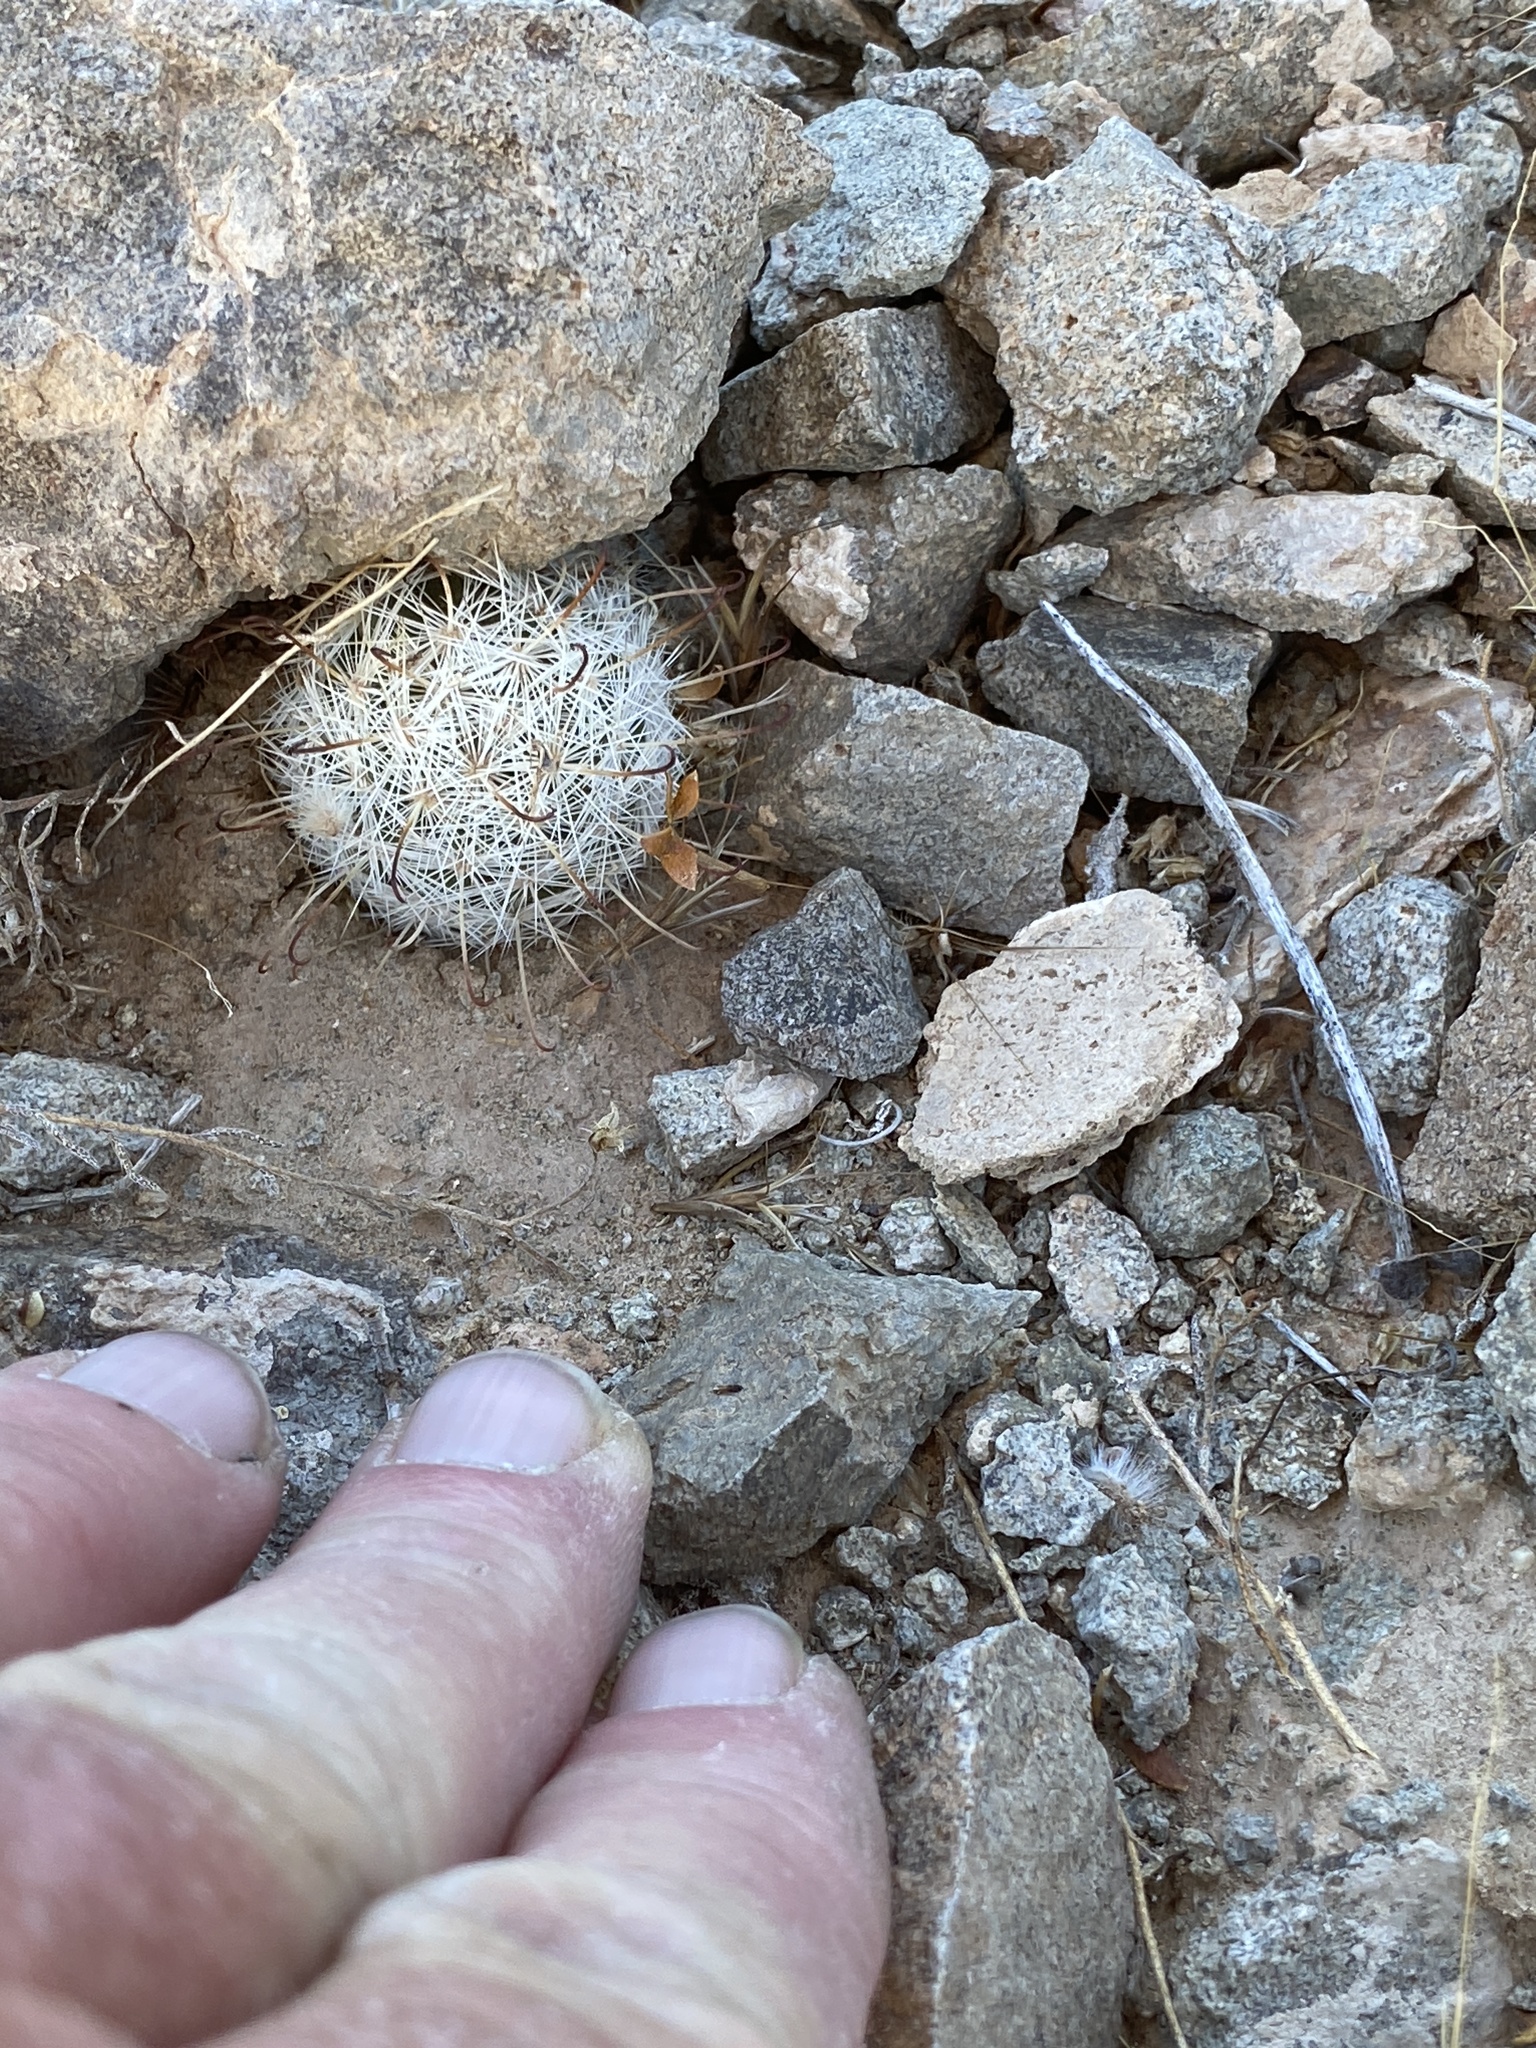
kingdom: Plantae
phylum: Tracheophyta
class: Magnoliopsida
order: Caryophyllales
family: Cactaceae
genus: Cochemiea
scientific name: Cochemiea tetrancistra
